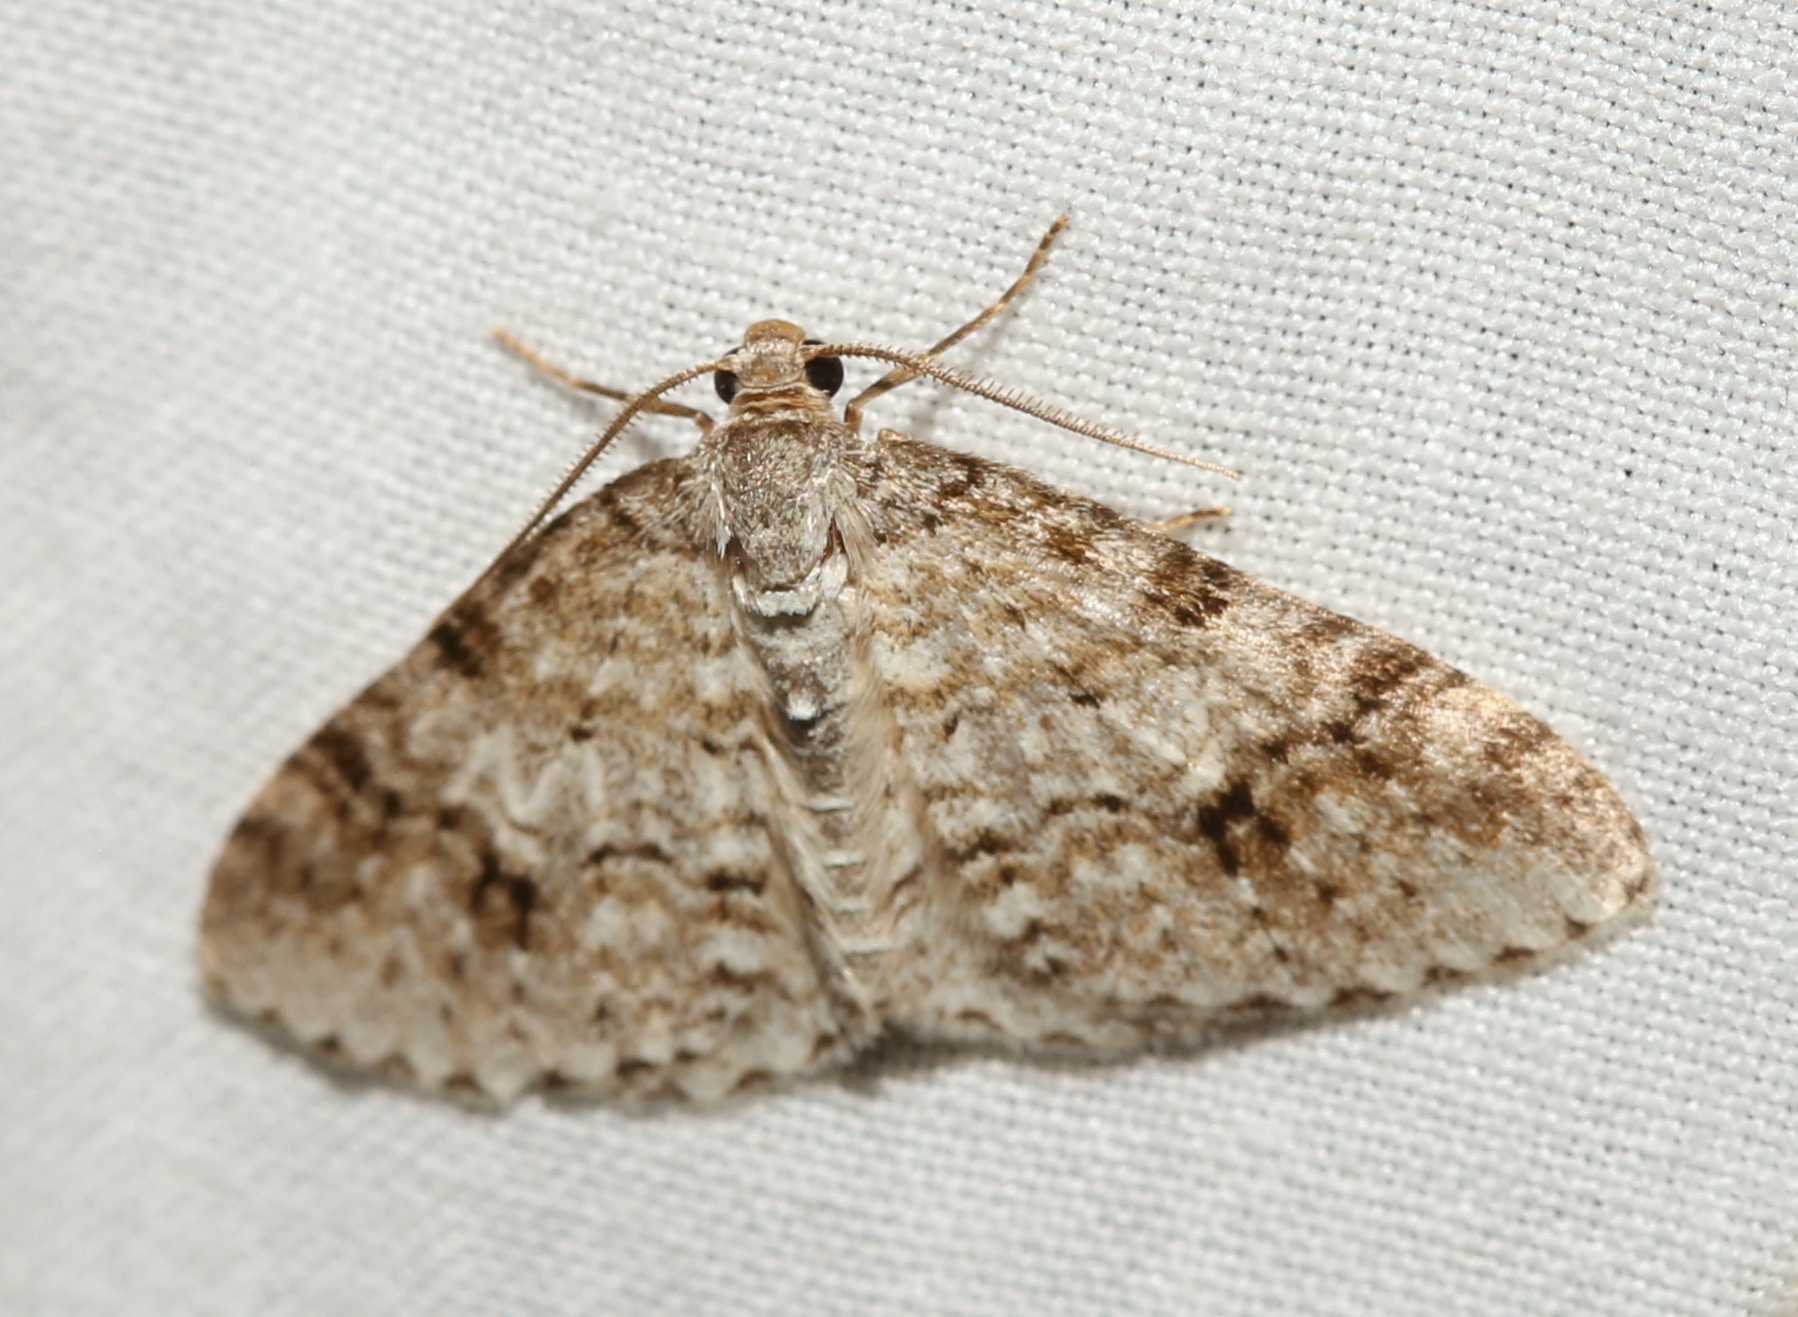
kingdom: Animalia
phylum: Arthropoda
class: Insecta
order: Lepidoptera
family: Geometridae
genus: Venusia
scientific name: Venusia cambrica
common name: Welsh wave
